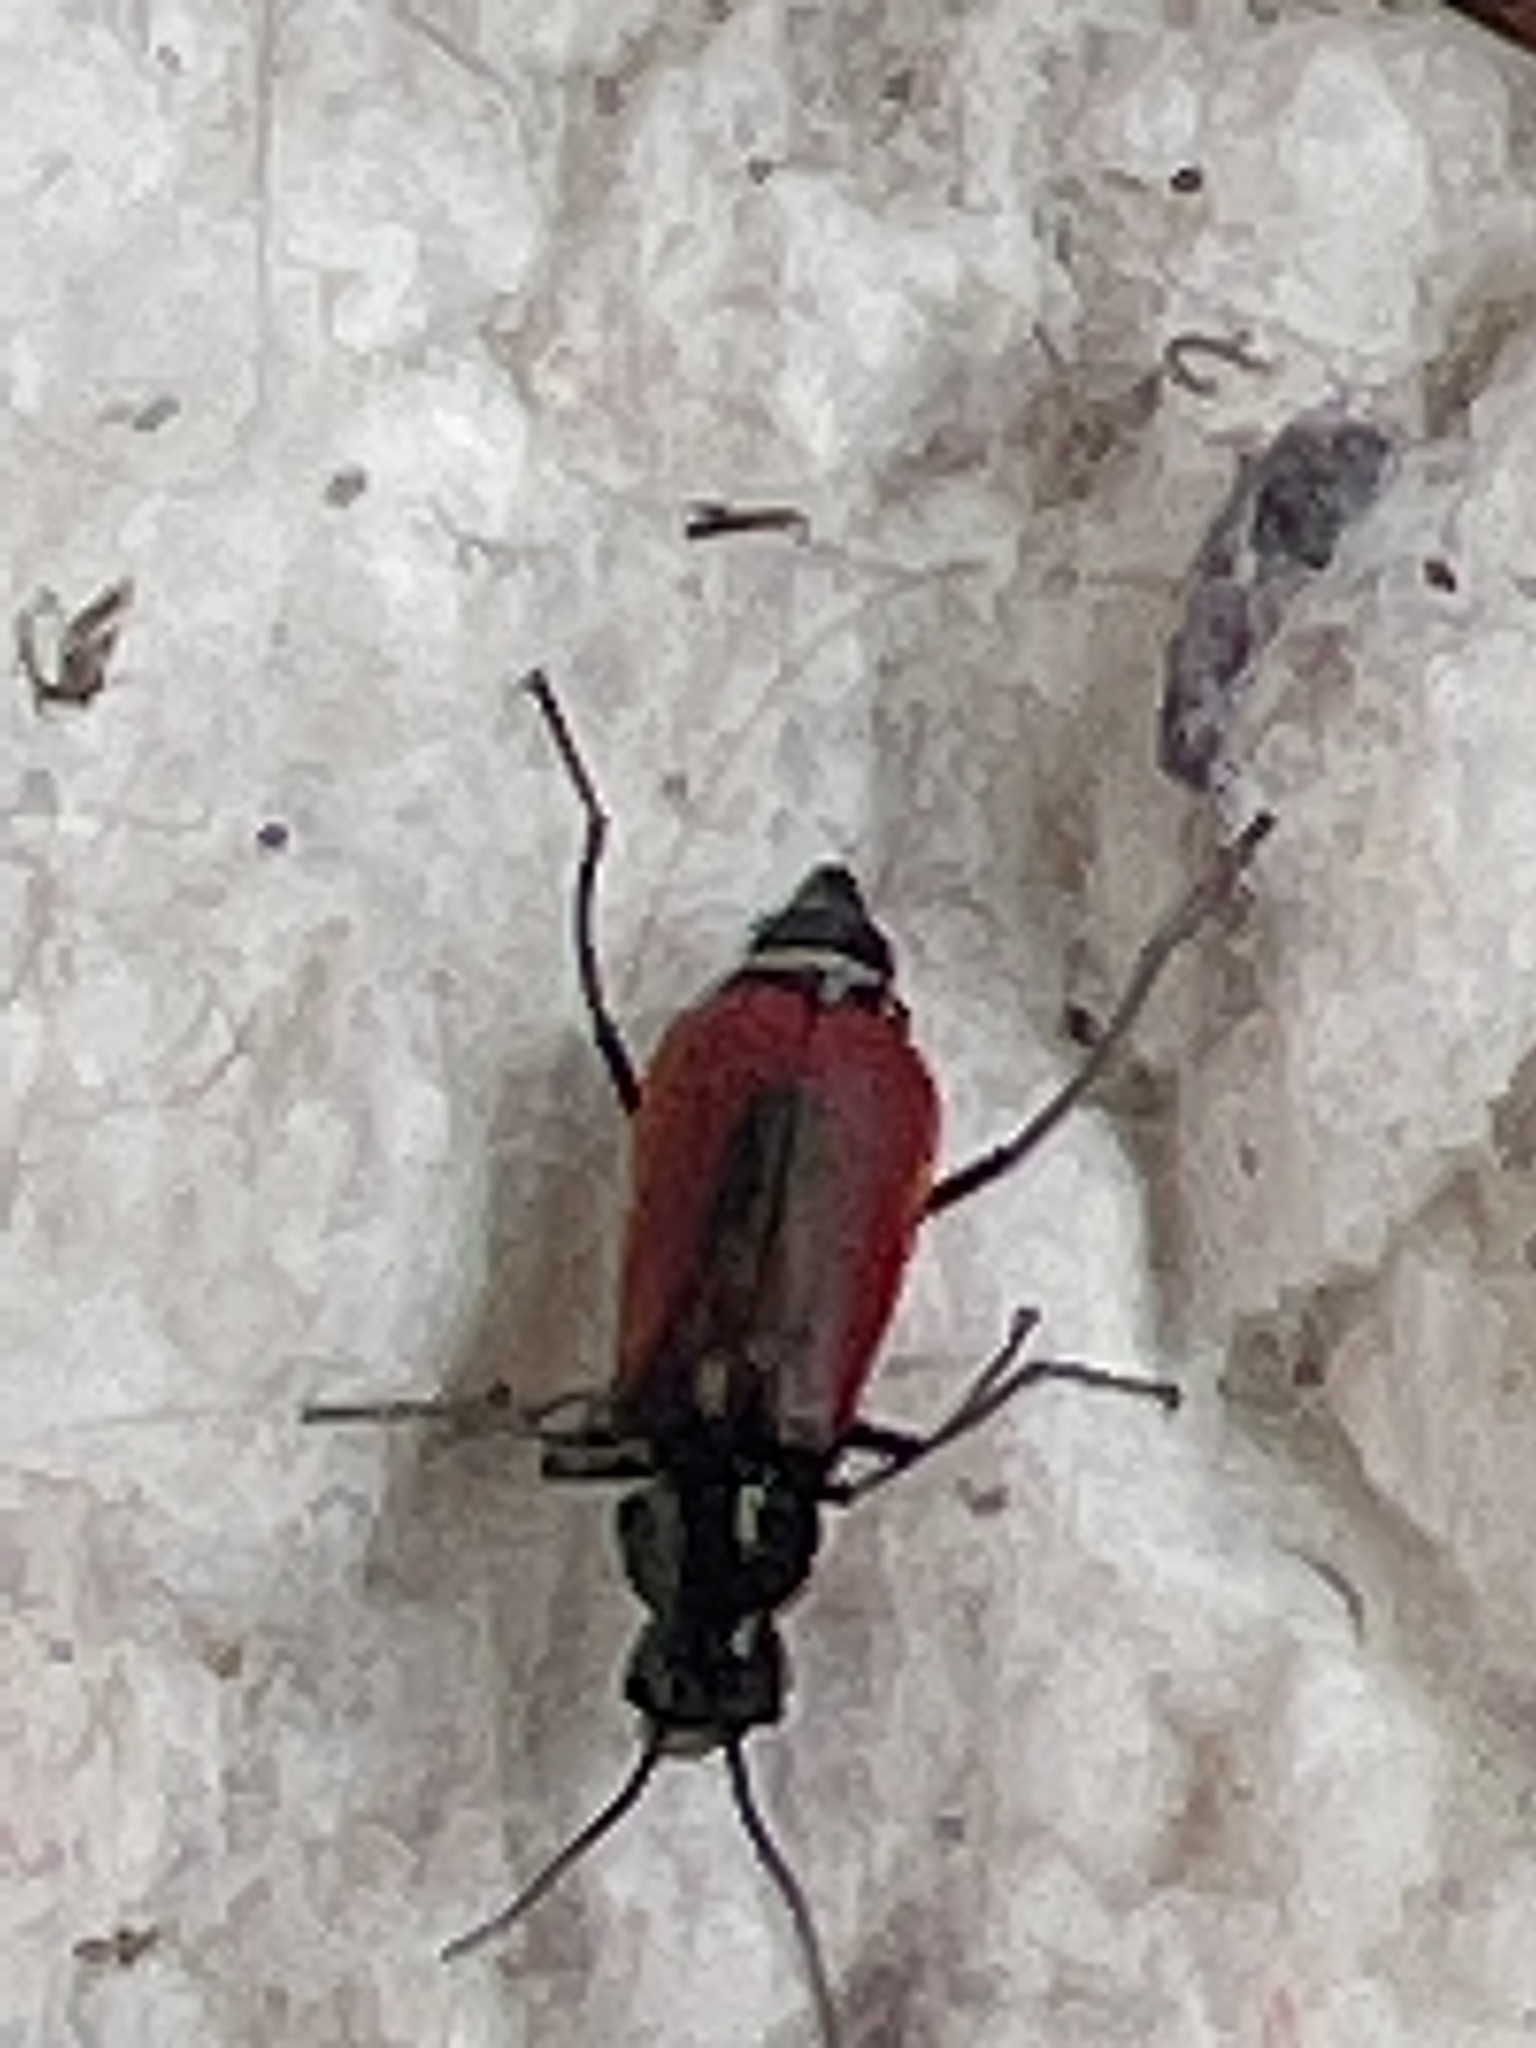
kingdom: Animalia
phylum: Arthropoda
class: Insecta
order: Coleoptera
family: Melyridae
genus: Malachius
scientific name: Malachius aeneus
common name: Scarlet malachite beetle
